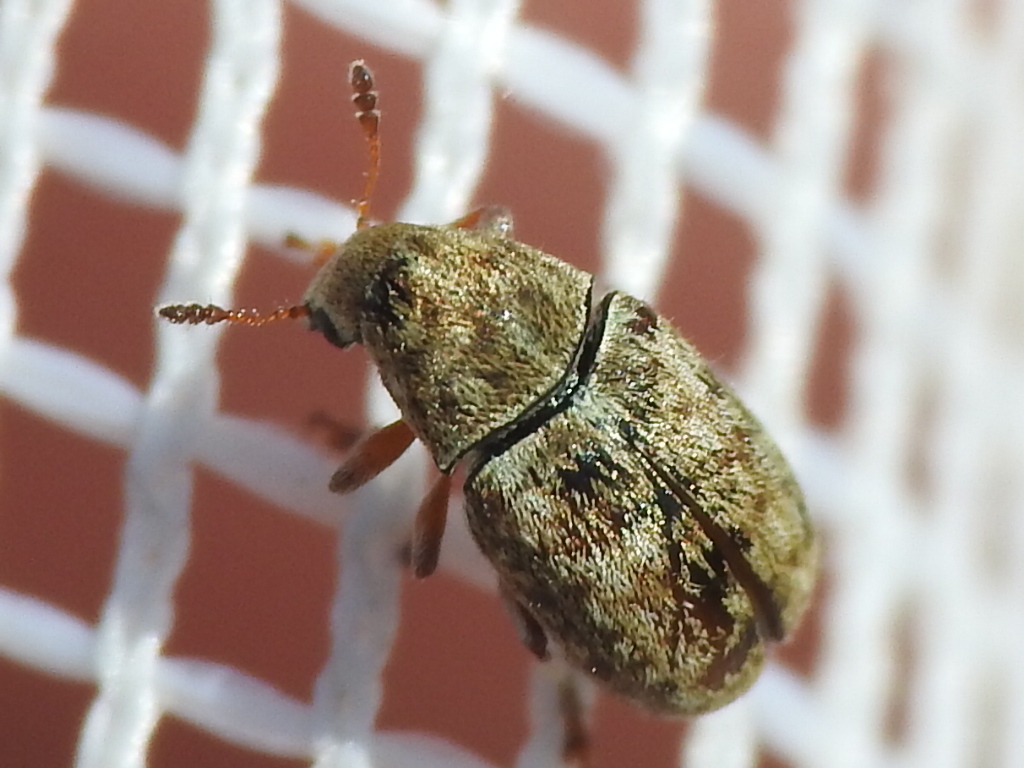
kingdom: Animalia
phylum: Arthropoda
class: Insecta
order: Coleoptera
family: Anthribidae
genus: Trigonorhinus
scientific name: Trigonorhinus limbatus
